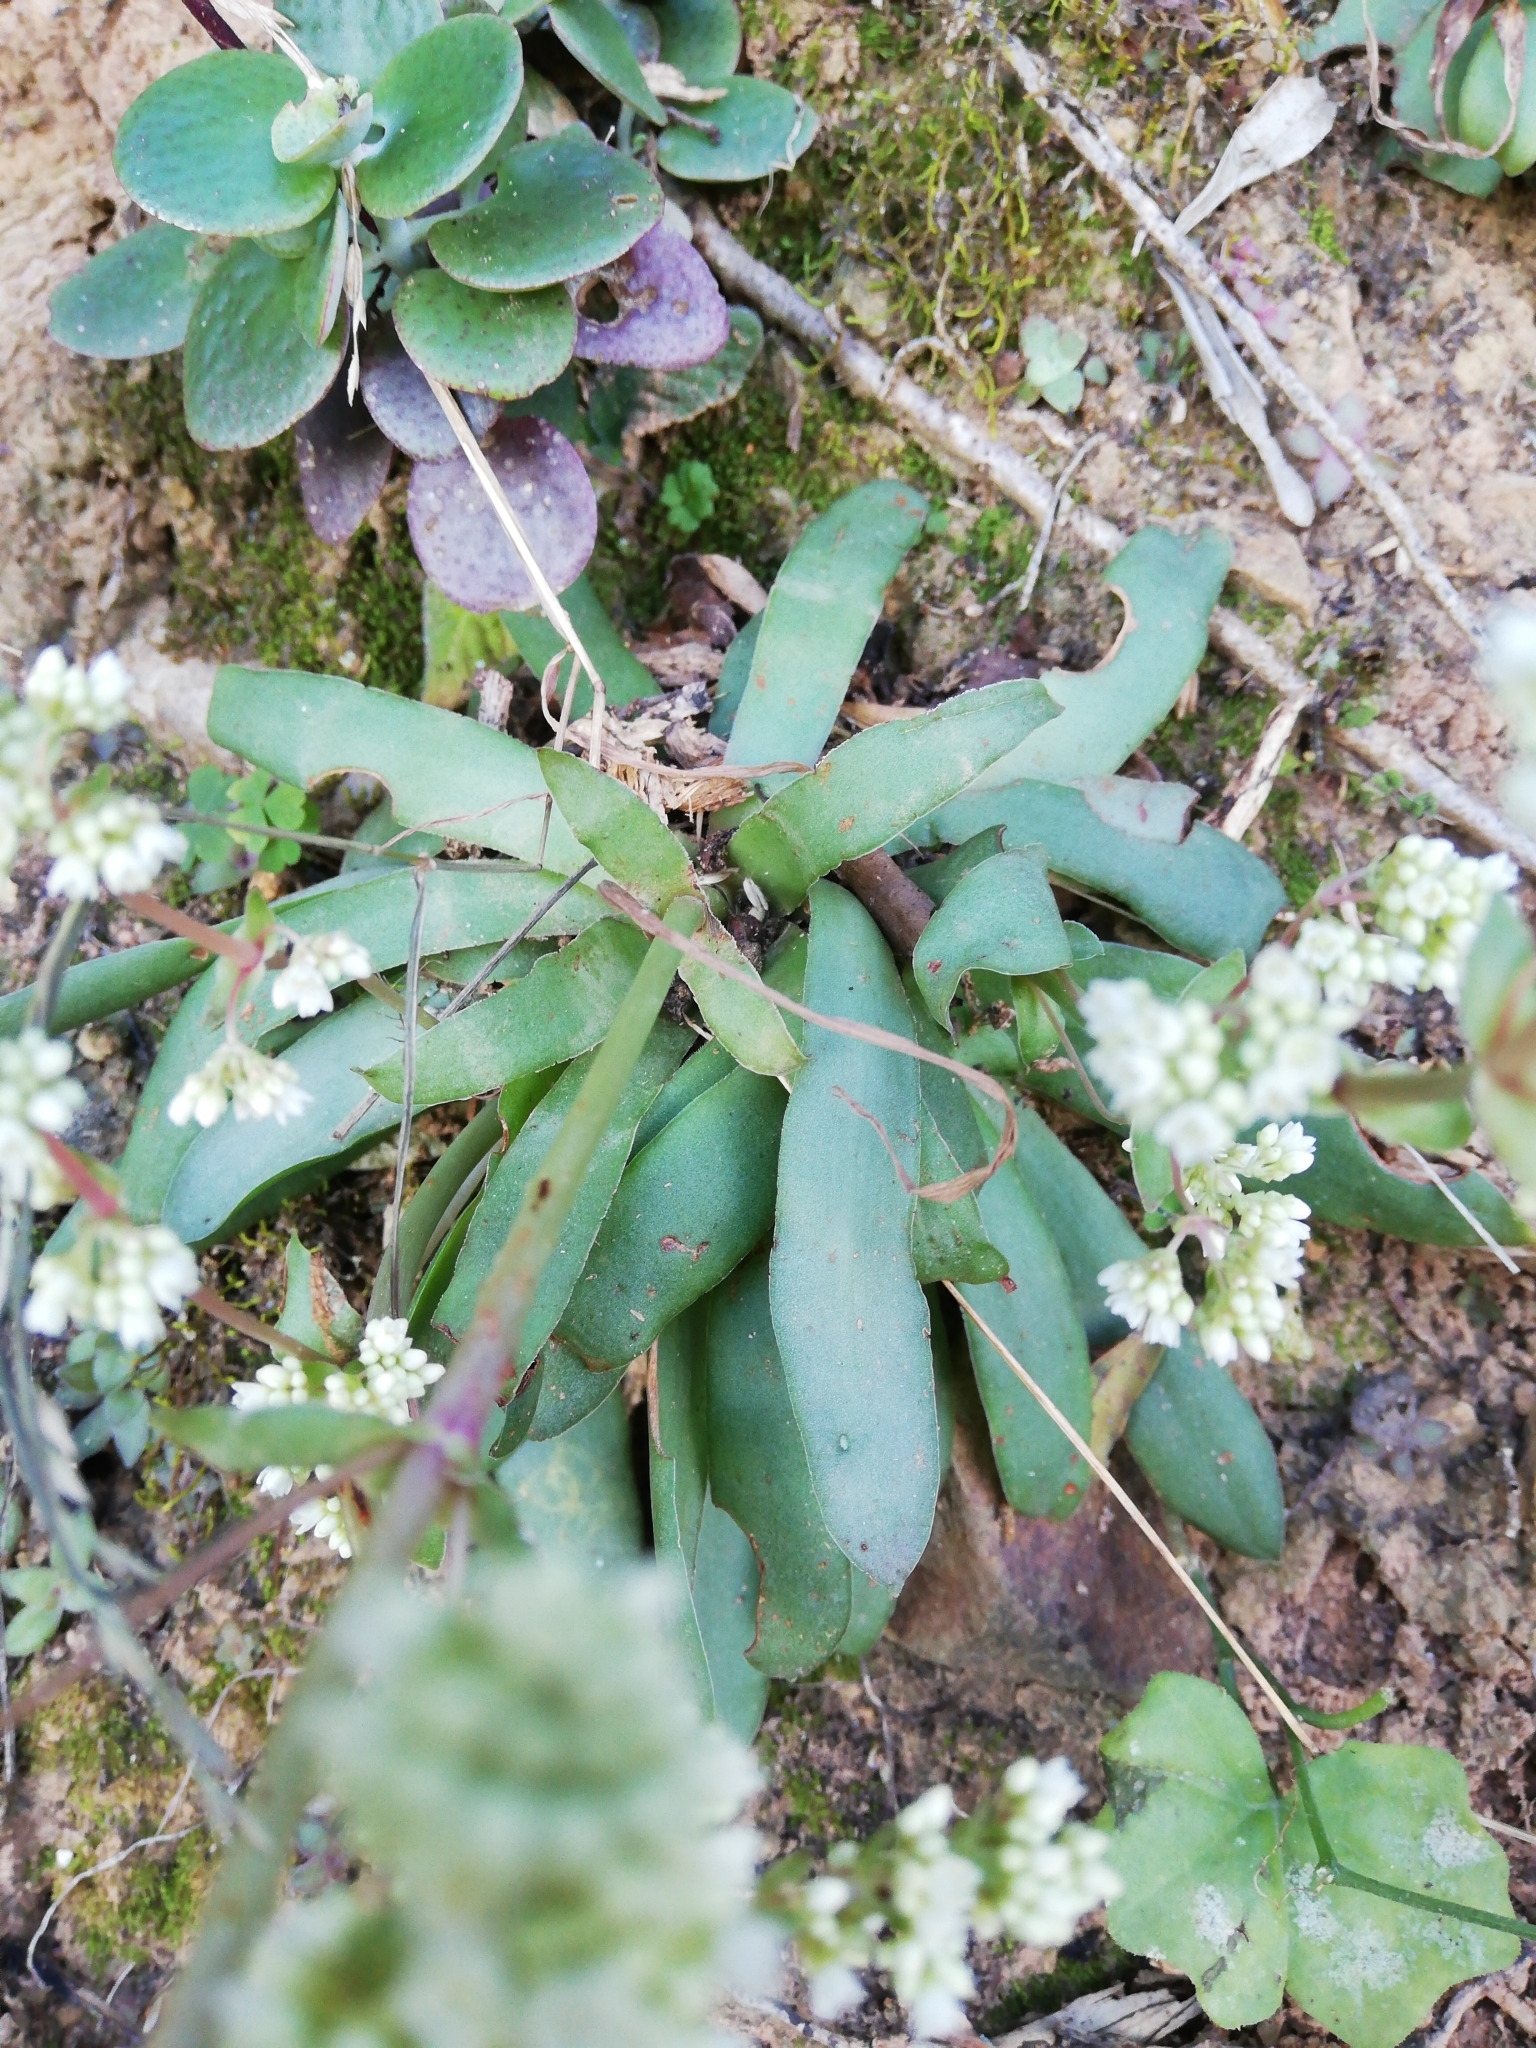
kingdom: Plantae
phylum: Tracheophyta
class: Magnoliopsida
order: Saxifragales
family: Crassulaceae
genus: Crassula
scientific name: Crassula orbicularis
